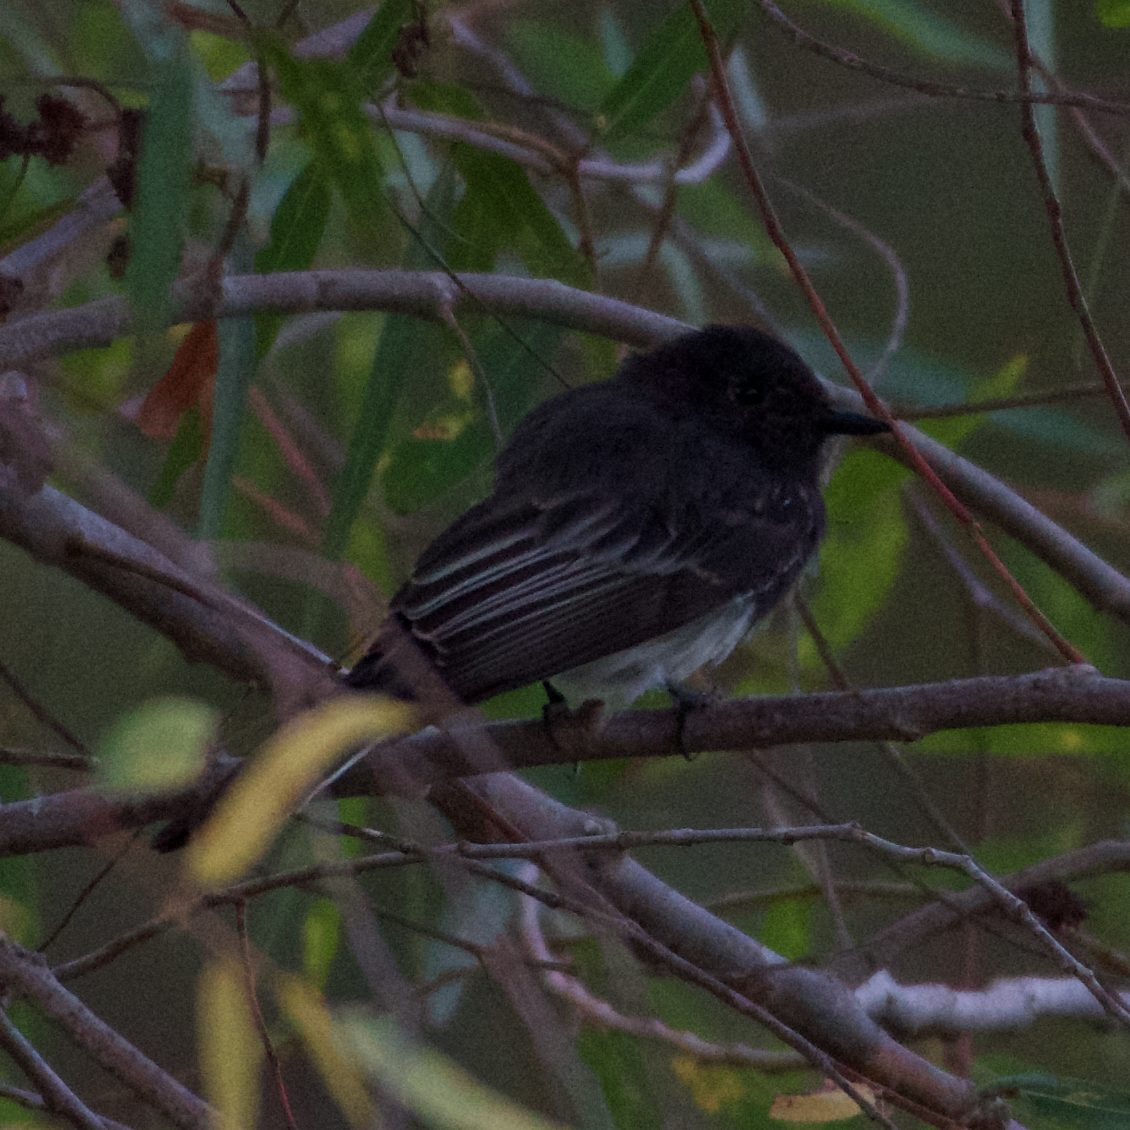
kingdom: Animalia
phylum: Chordata
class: Aves
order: Passeriformes
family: Tyrannidae
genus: Sayornis
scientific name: Sayornis nigricans
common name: Black phoebe
